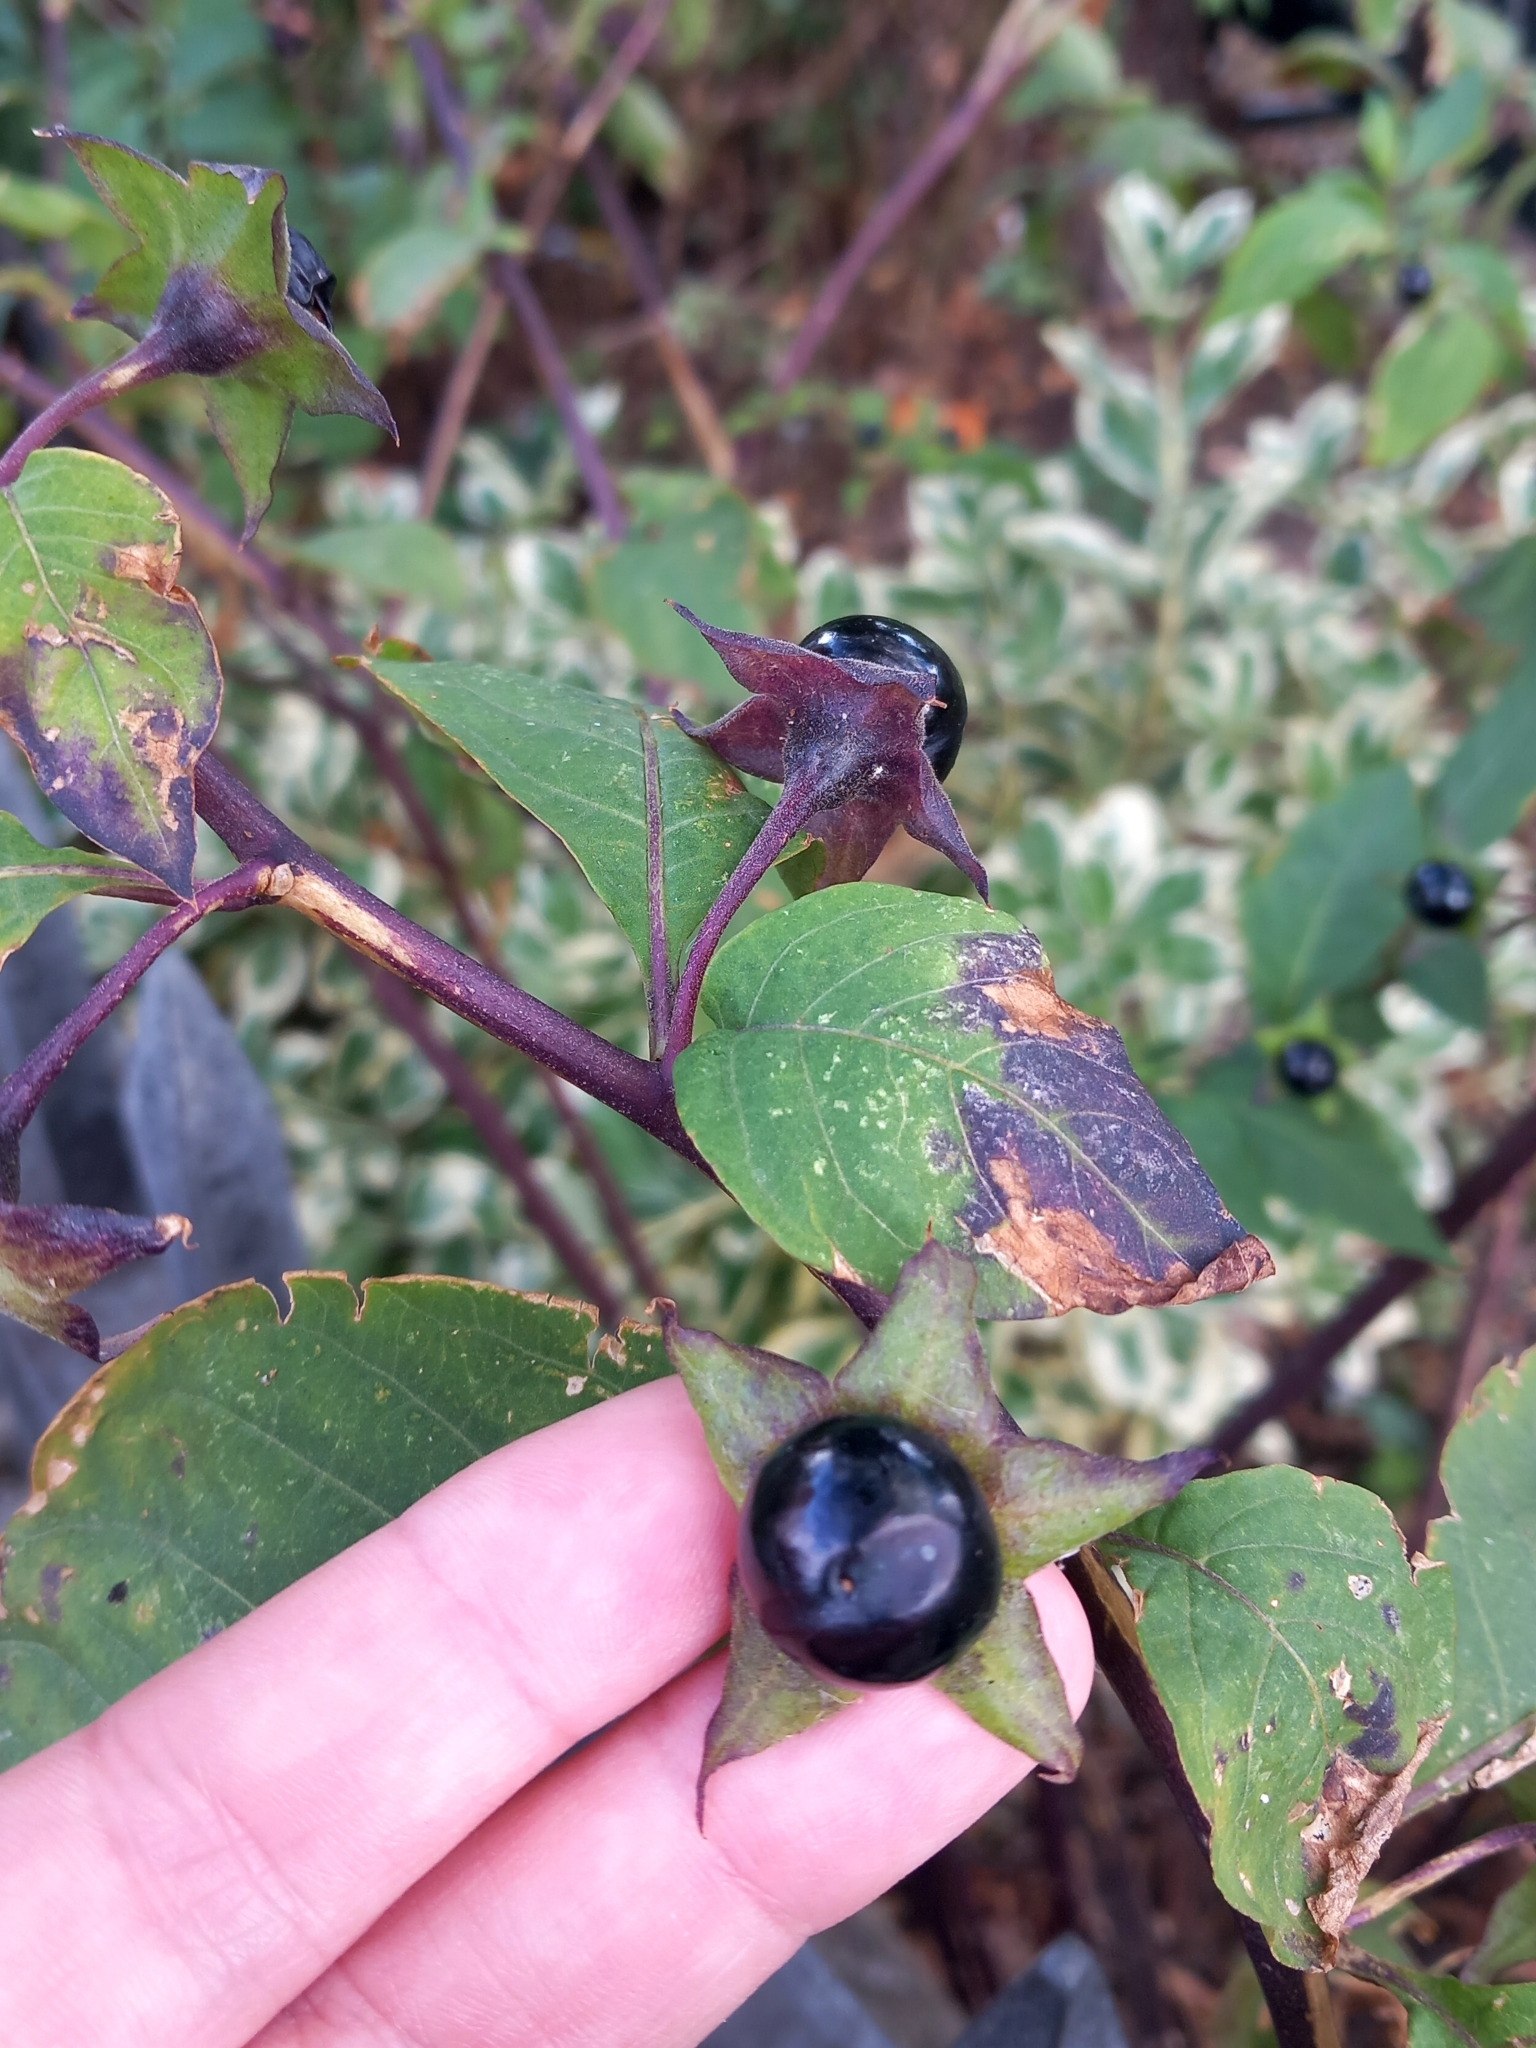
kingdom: Plantae
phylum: Tracheophyta
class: Magnoliopsida
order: Solanales
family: Solanaceae
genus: Atropa
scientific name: Atropa belladonna
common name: Deadly nightshade
